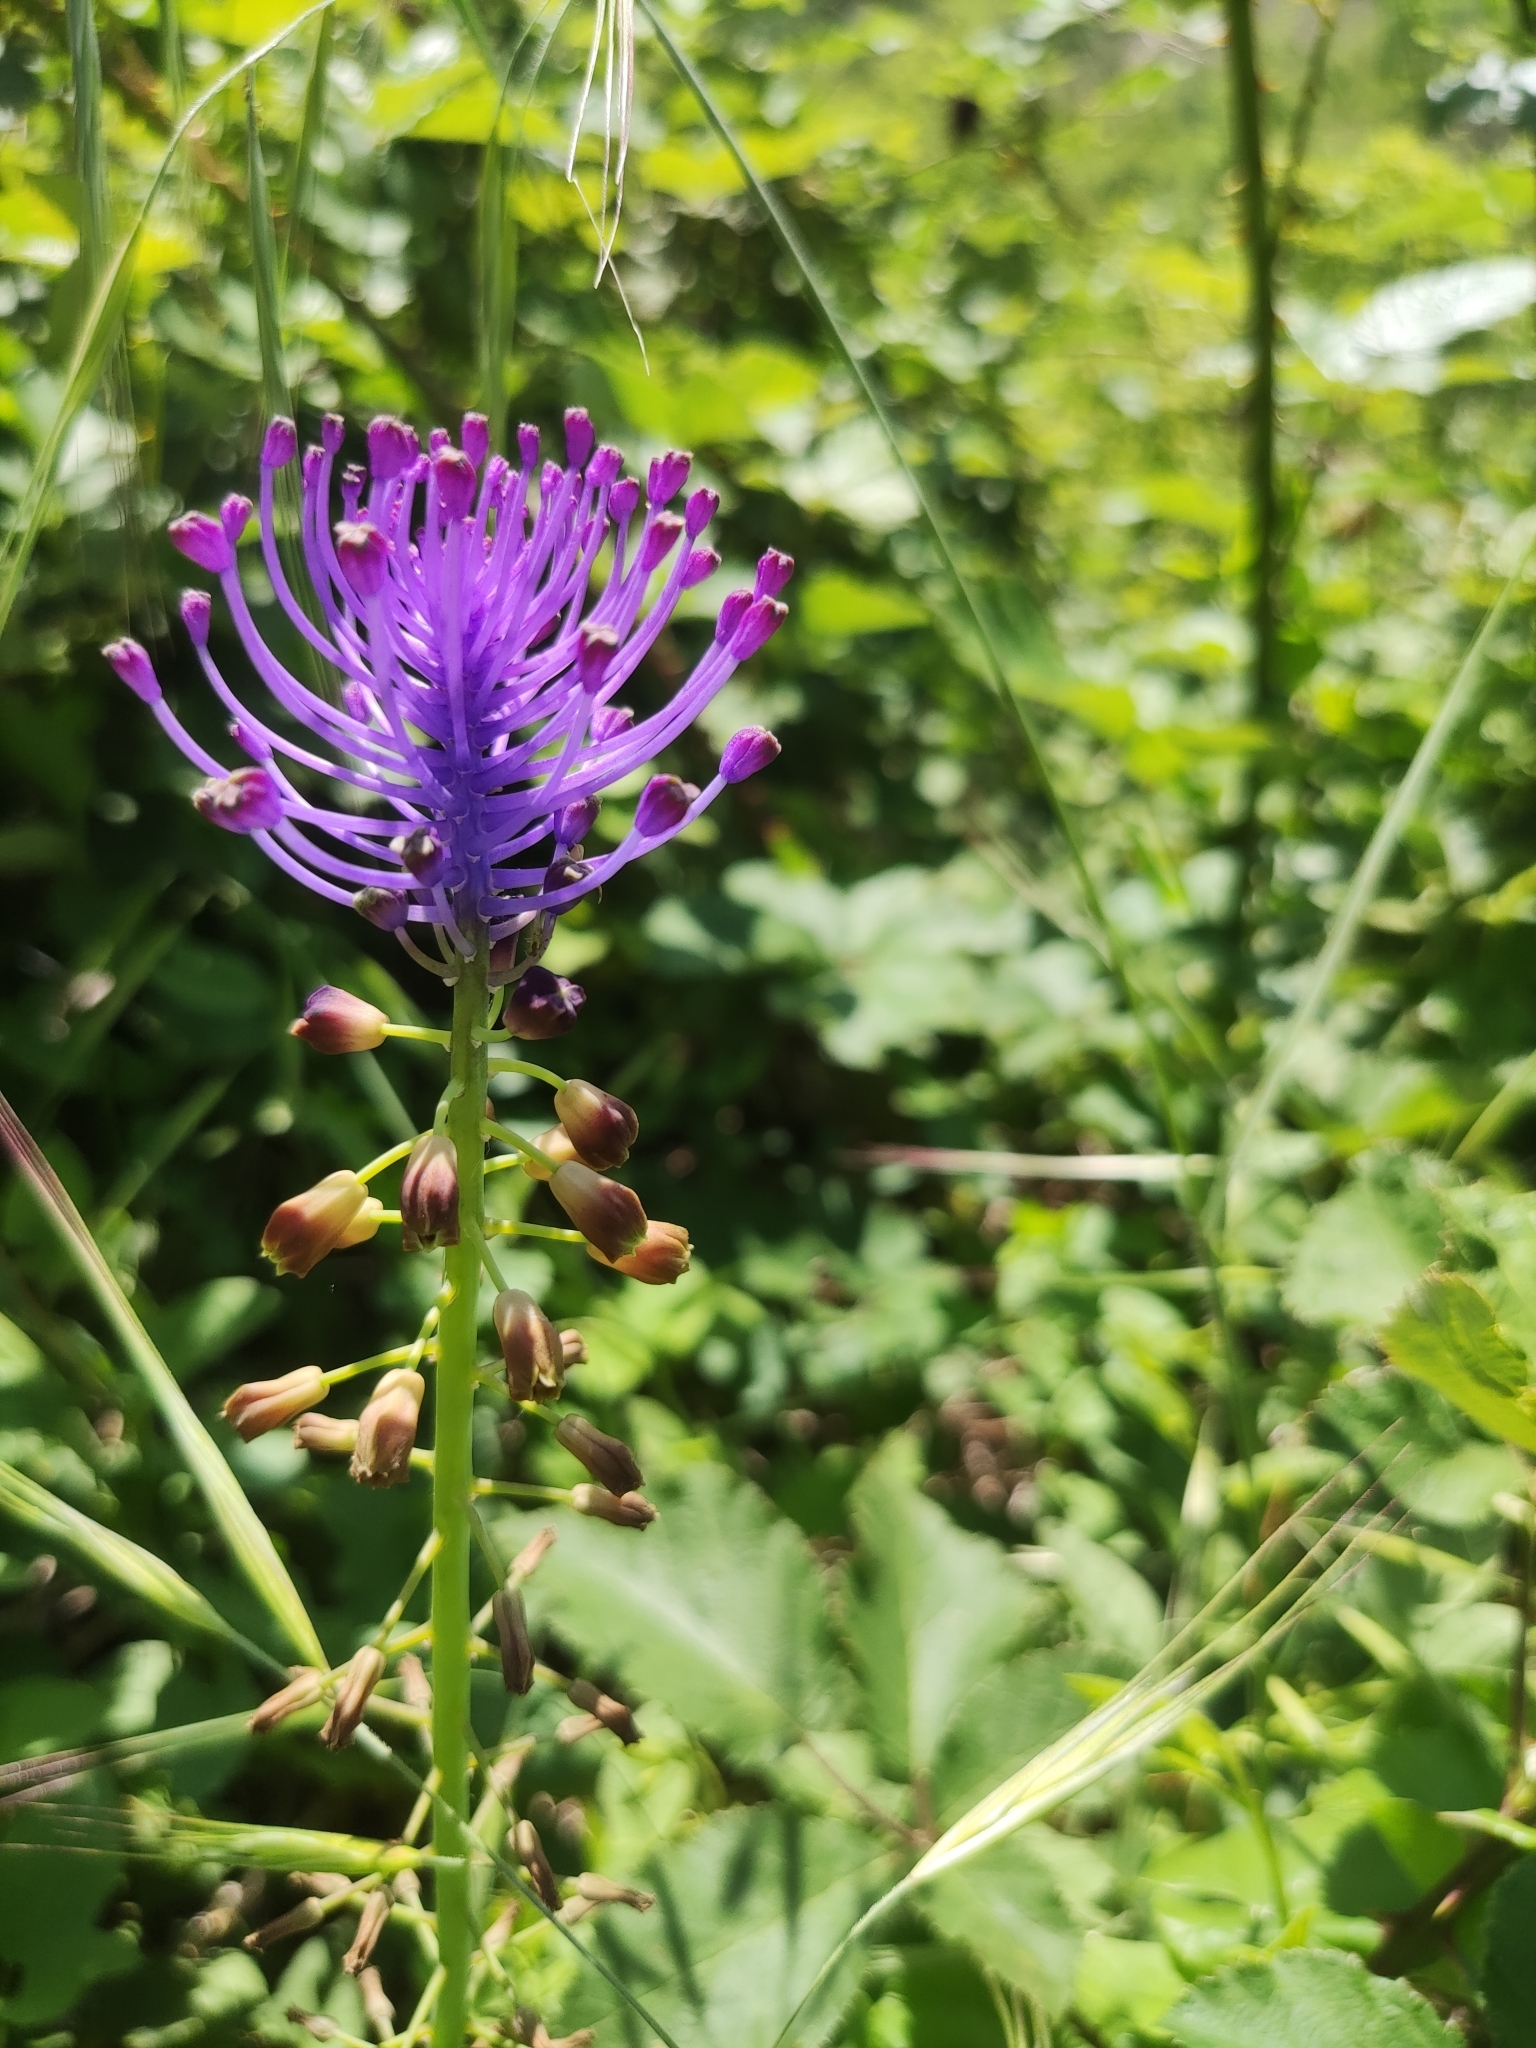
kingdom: Plantae
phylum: Tracheophyta
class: Liliopsida
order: Asparagales
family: Asparagaceae
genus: Muscari
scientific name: Muscari comosum
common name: Tassel hyacinth
